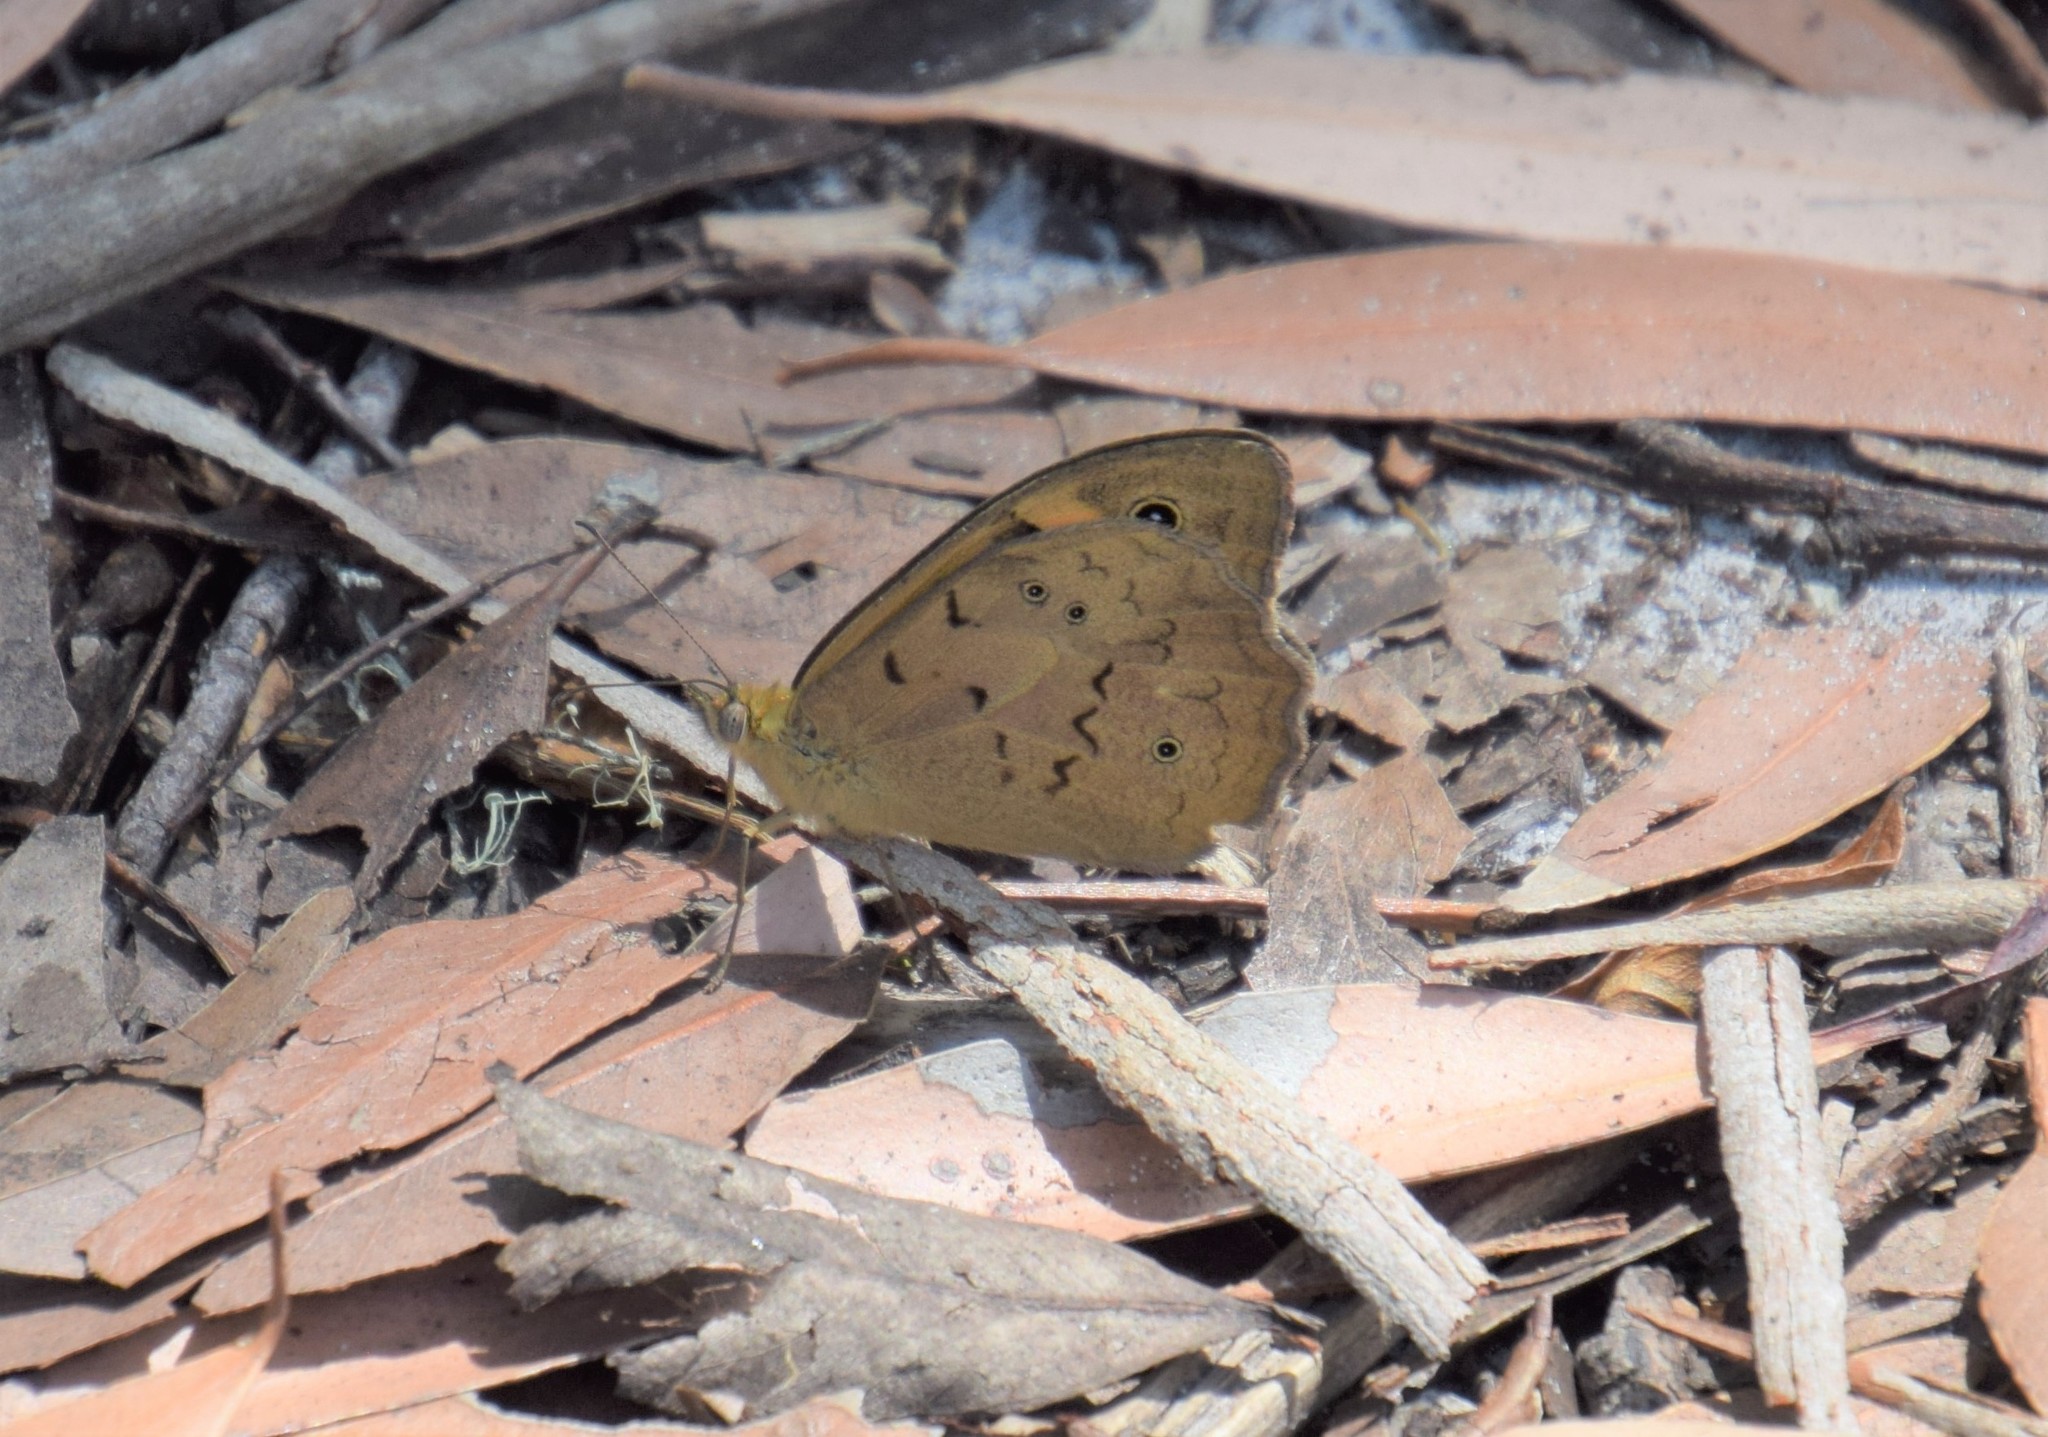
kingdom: Animalia
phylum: Arthropoda
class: Insecta
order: Lepidoptera
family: Nymphalidae
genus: Heteronympha
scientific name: Heteronympha merope
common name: Common brown
